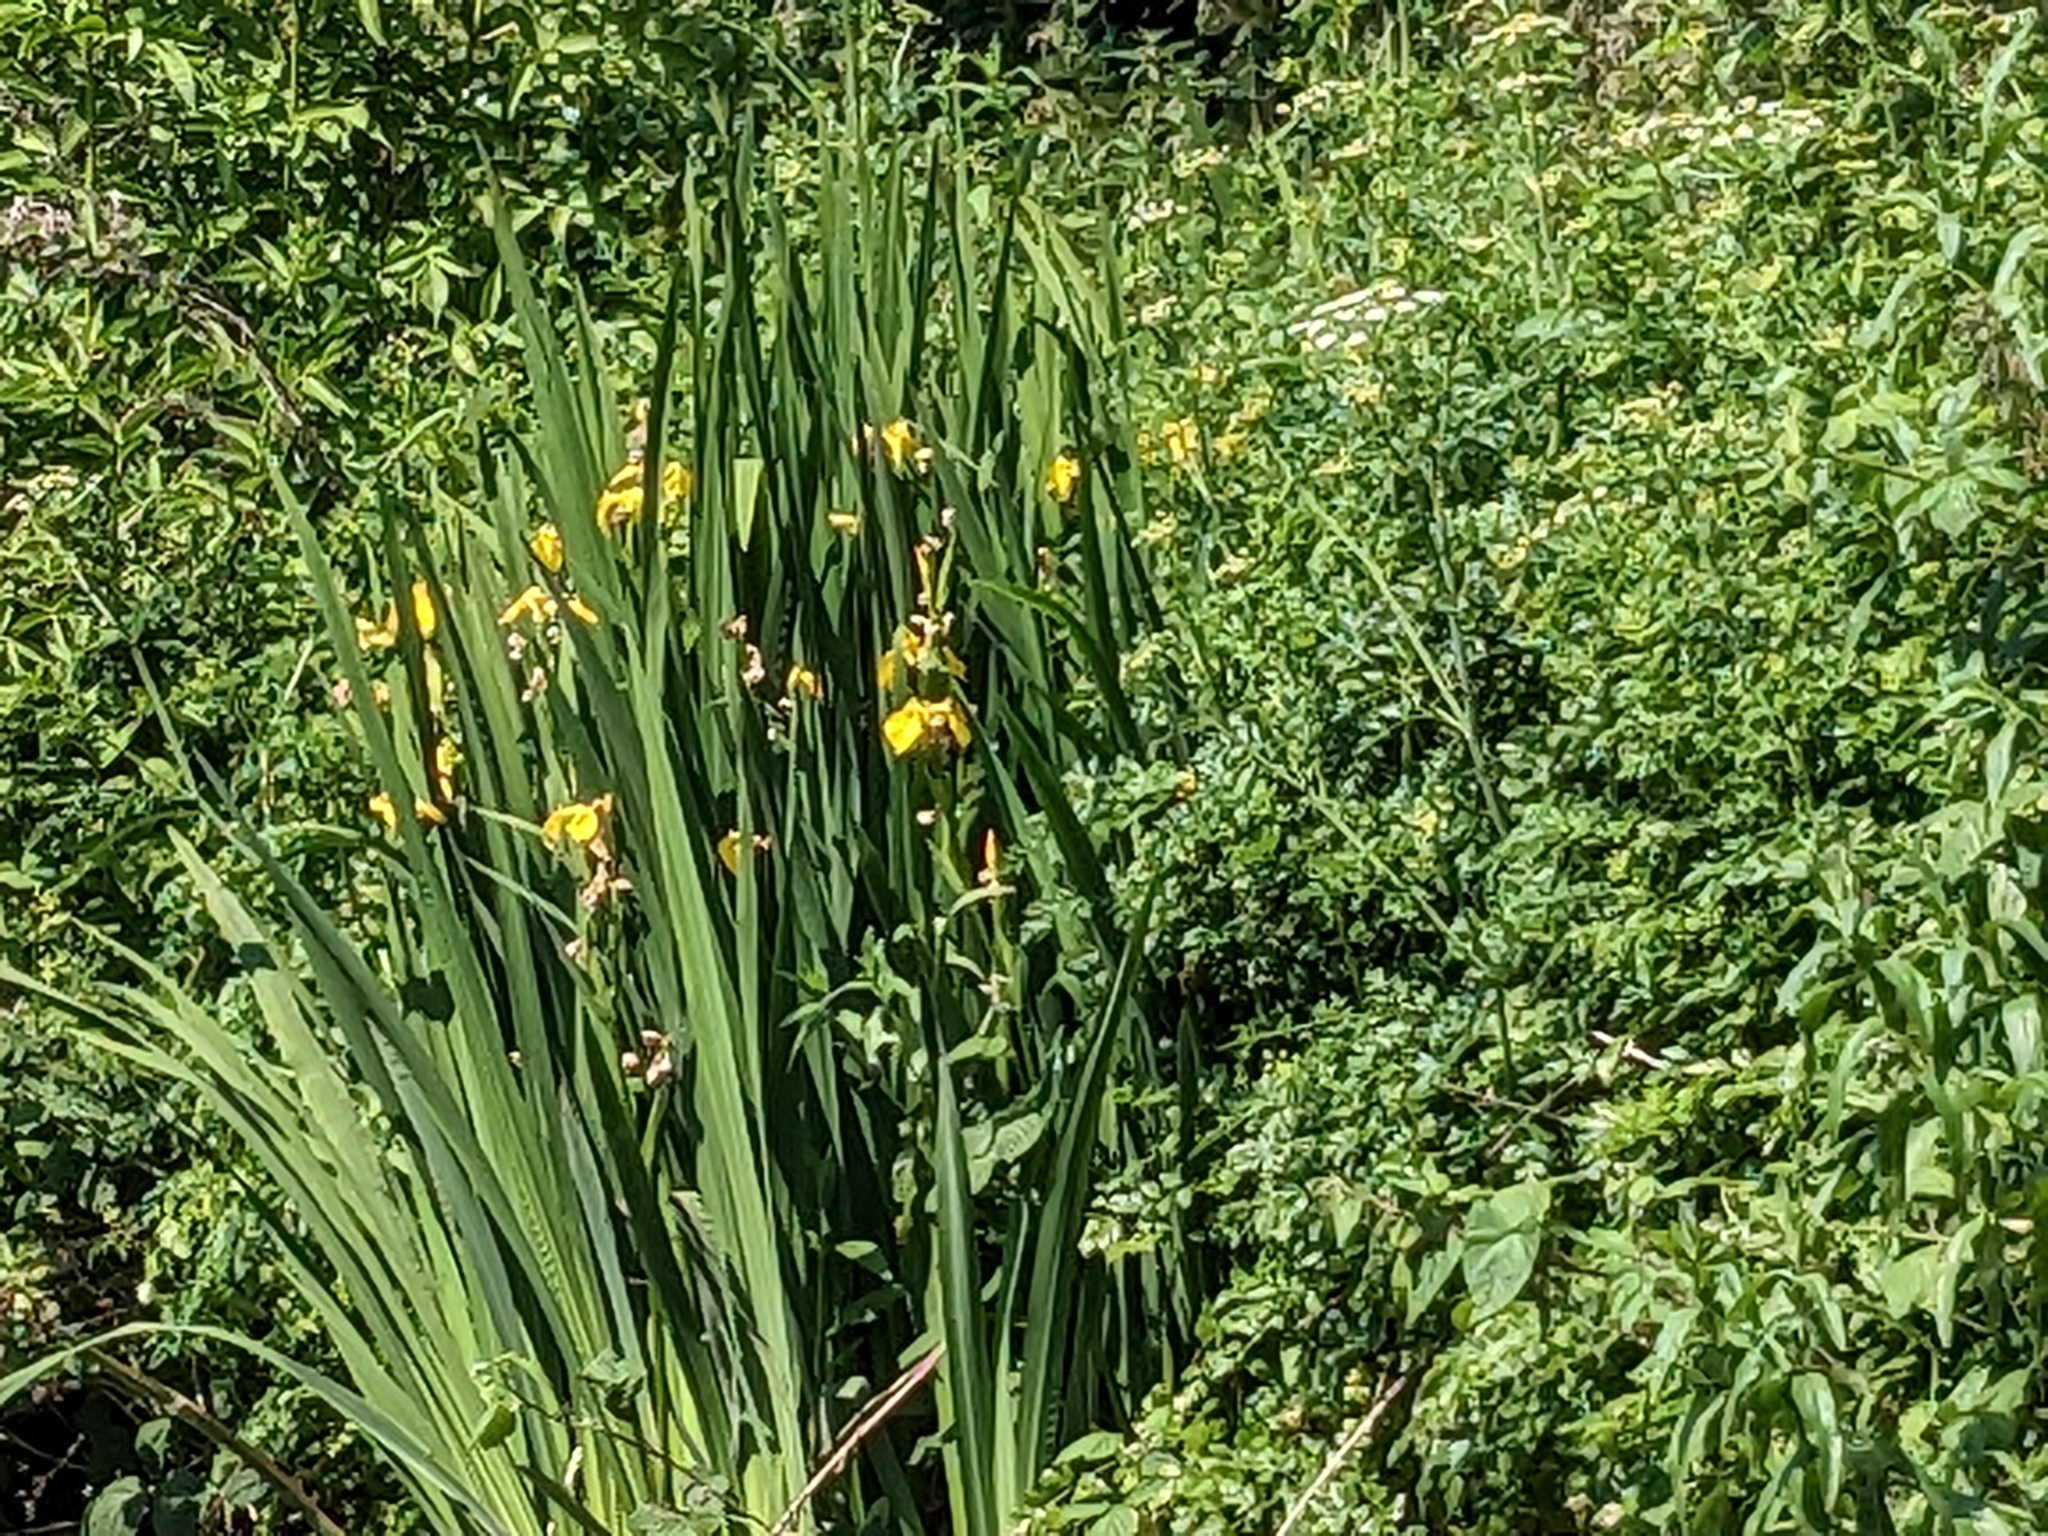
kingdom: Plantae
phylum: Tracheophyta
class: Liliopsida
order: Asparagales
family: Iridaceae
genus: Iris
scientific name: Iris pseudacorus
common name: Yellow flag
